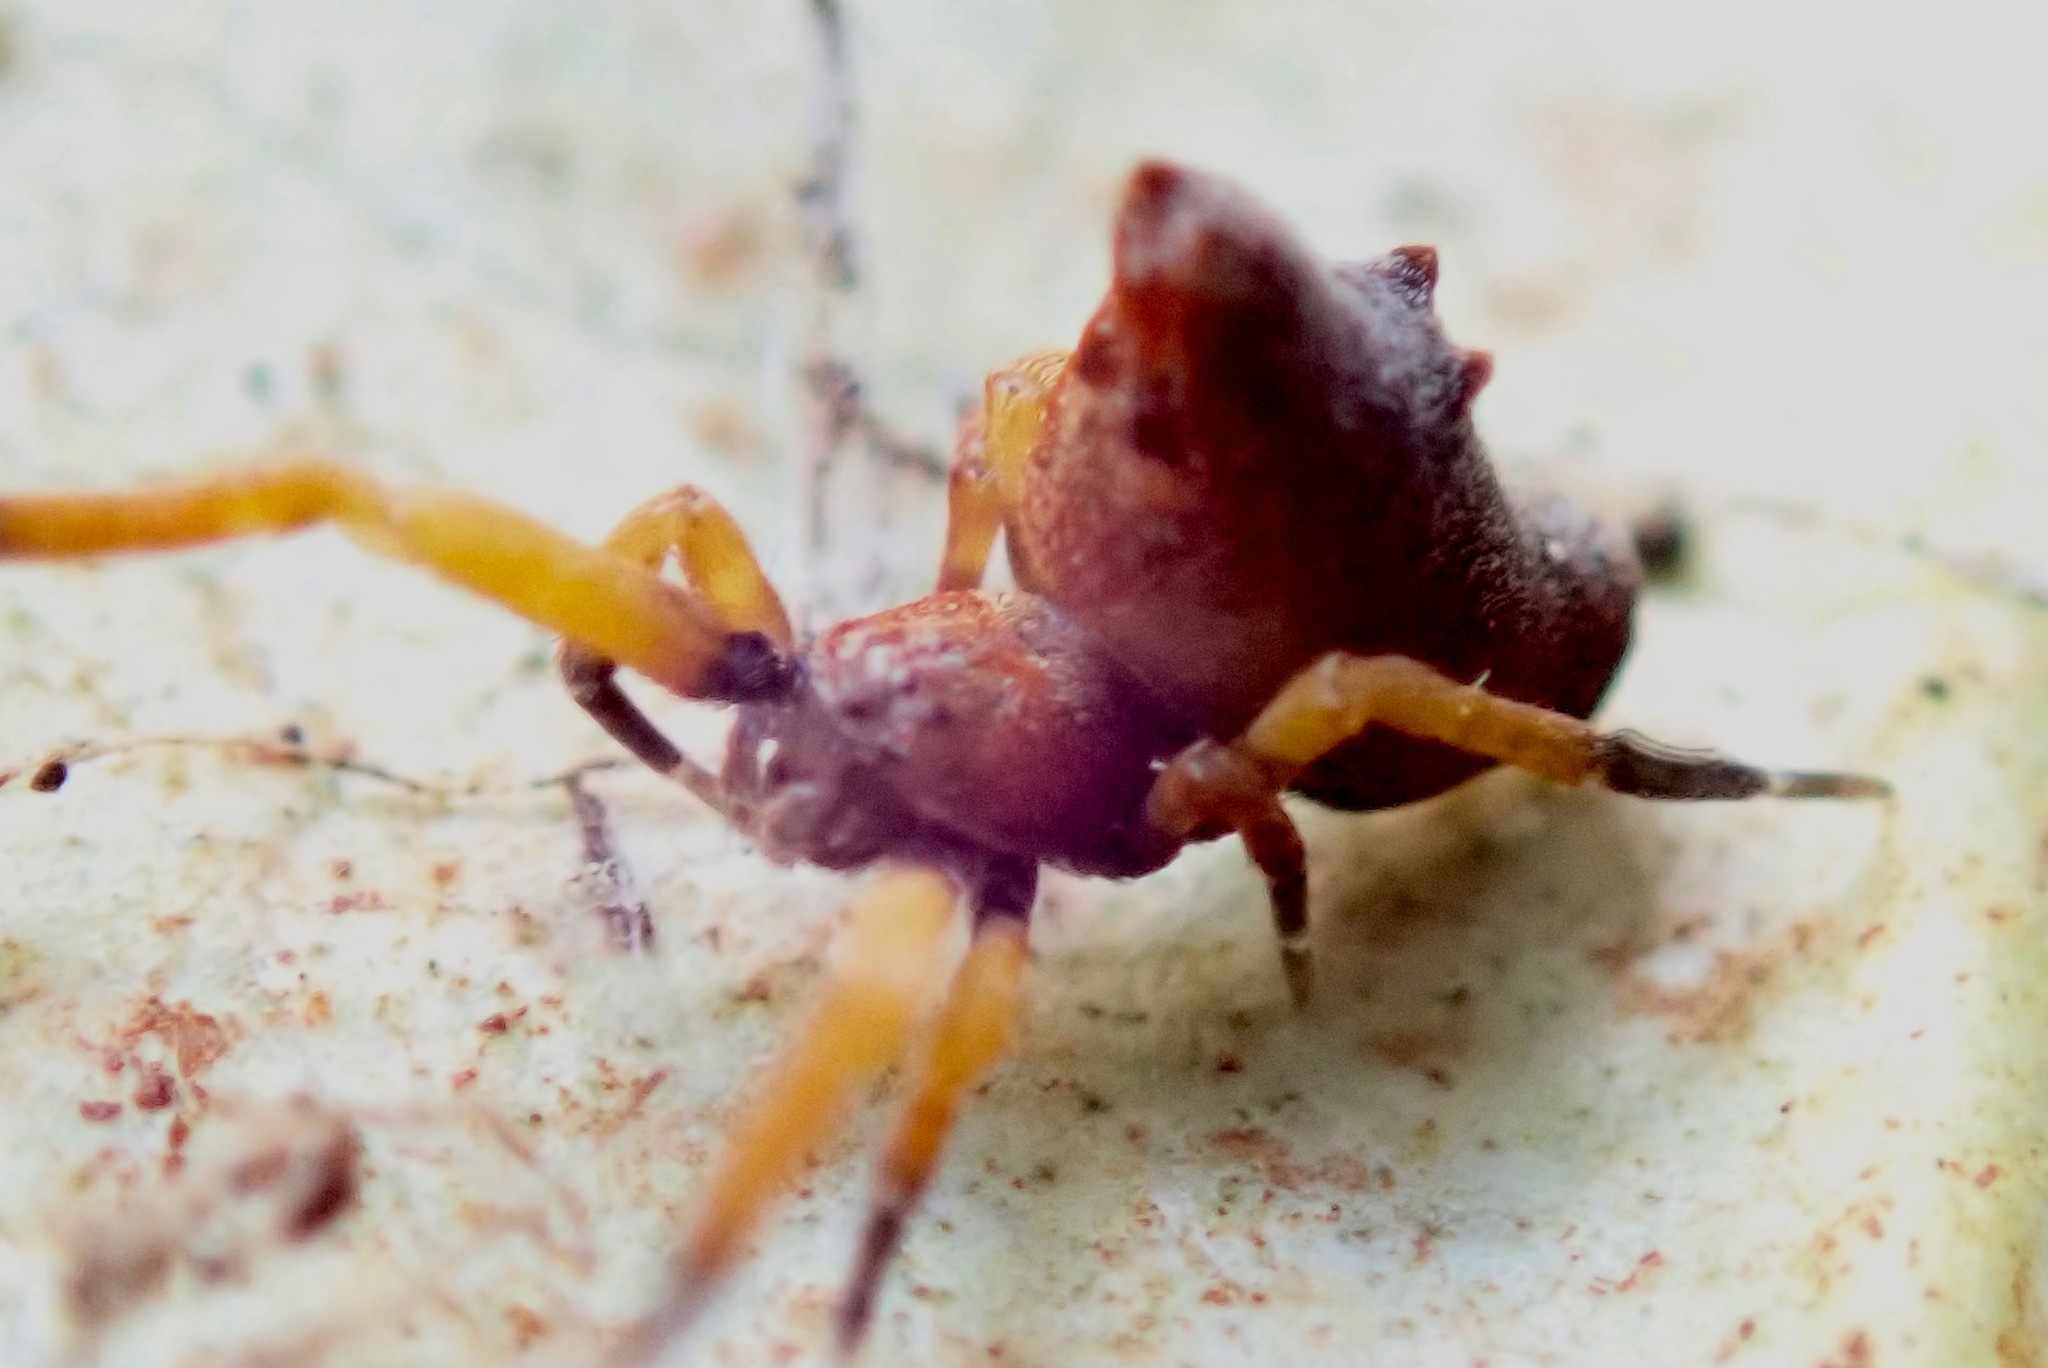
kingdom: Animalia
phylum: Arthropoda
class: Arachnida
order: Araneae
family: Uloboridae
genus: Philoponella
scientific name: Philoponella congregabilis
